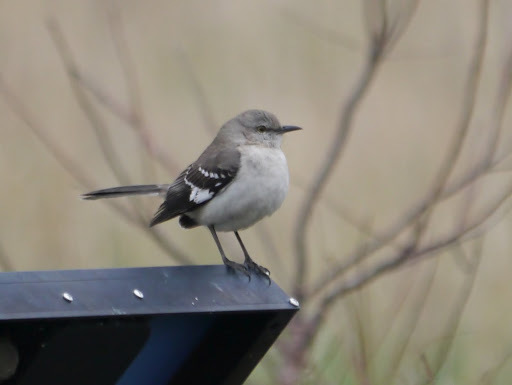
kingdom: Animalia
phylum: Chordata
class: Aves
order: Passeriformes
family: Mimidae
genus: Mimus
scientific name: Mimus polyglottos
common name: Northern mockingbird
